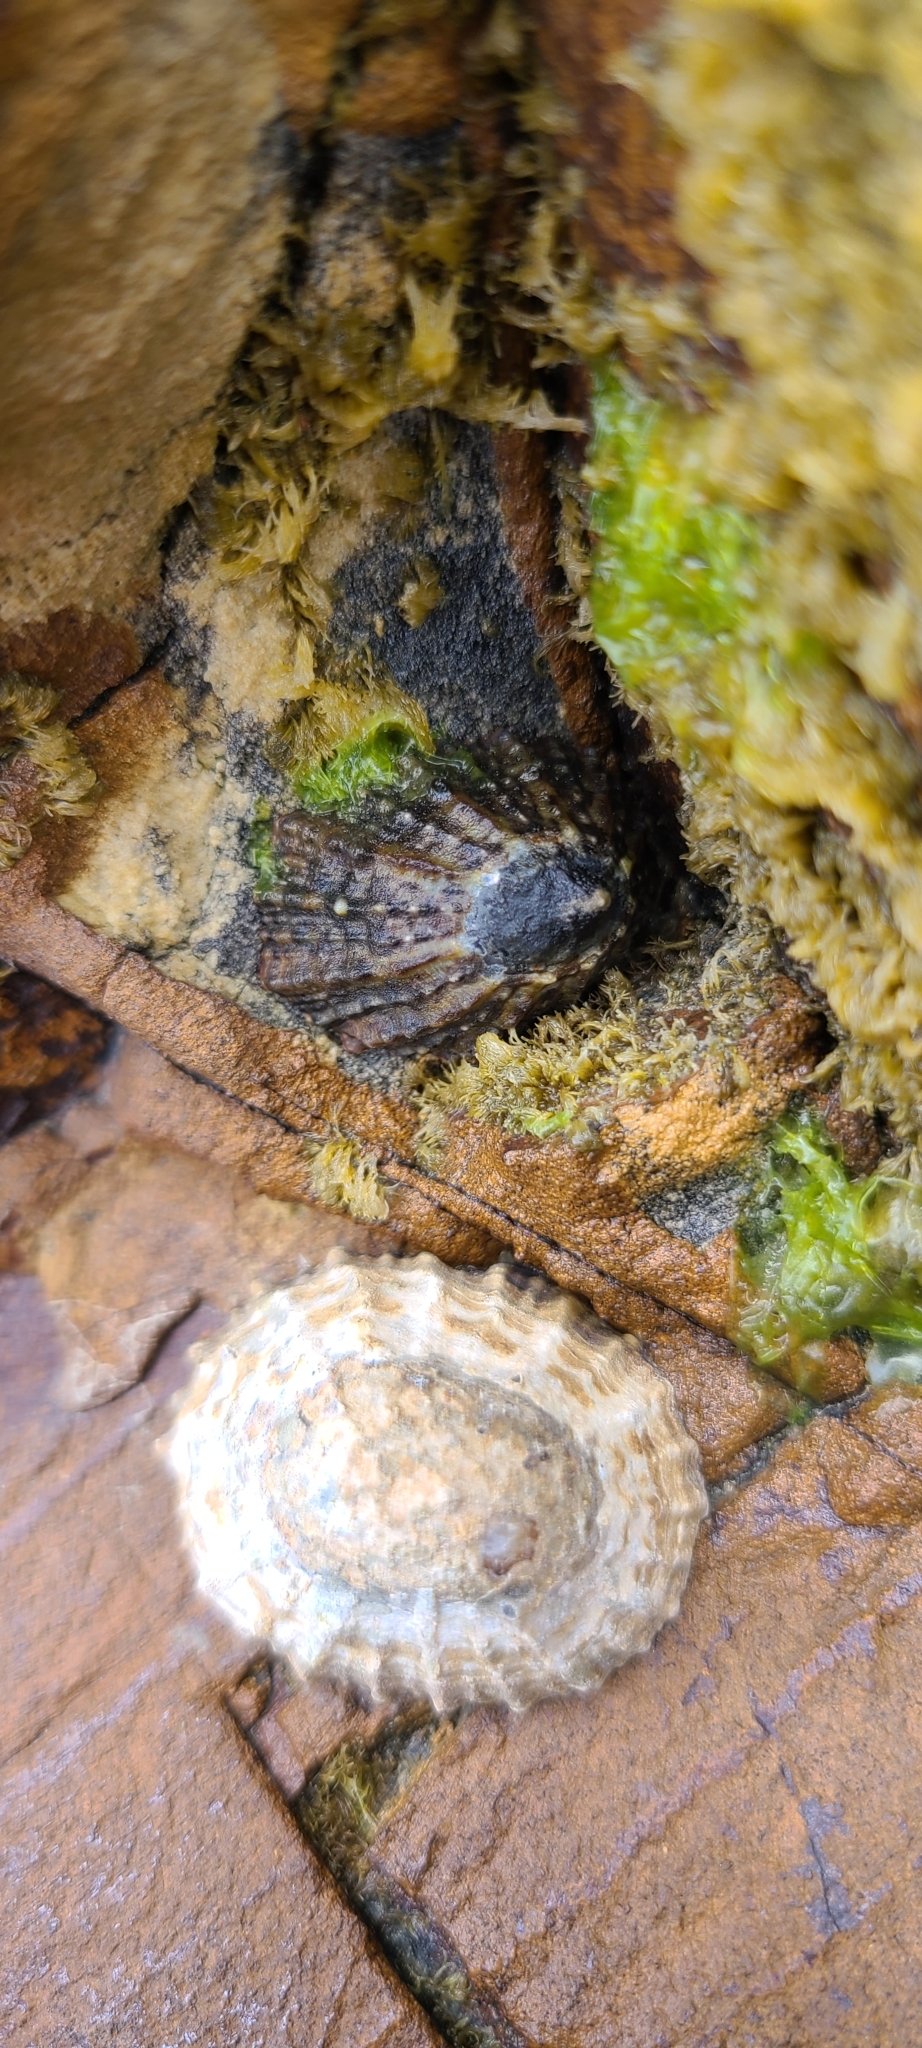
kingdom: Animalia
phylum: Mollusca
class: Gastropoda
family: Nacellidae
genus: Cellana
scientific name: Cellana ornata
